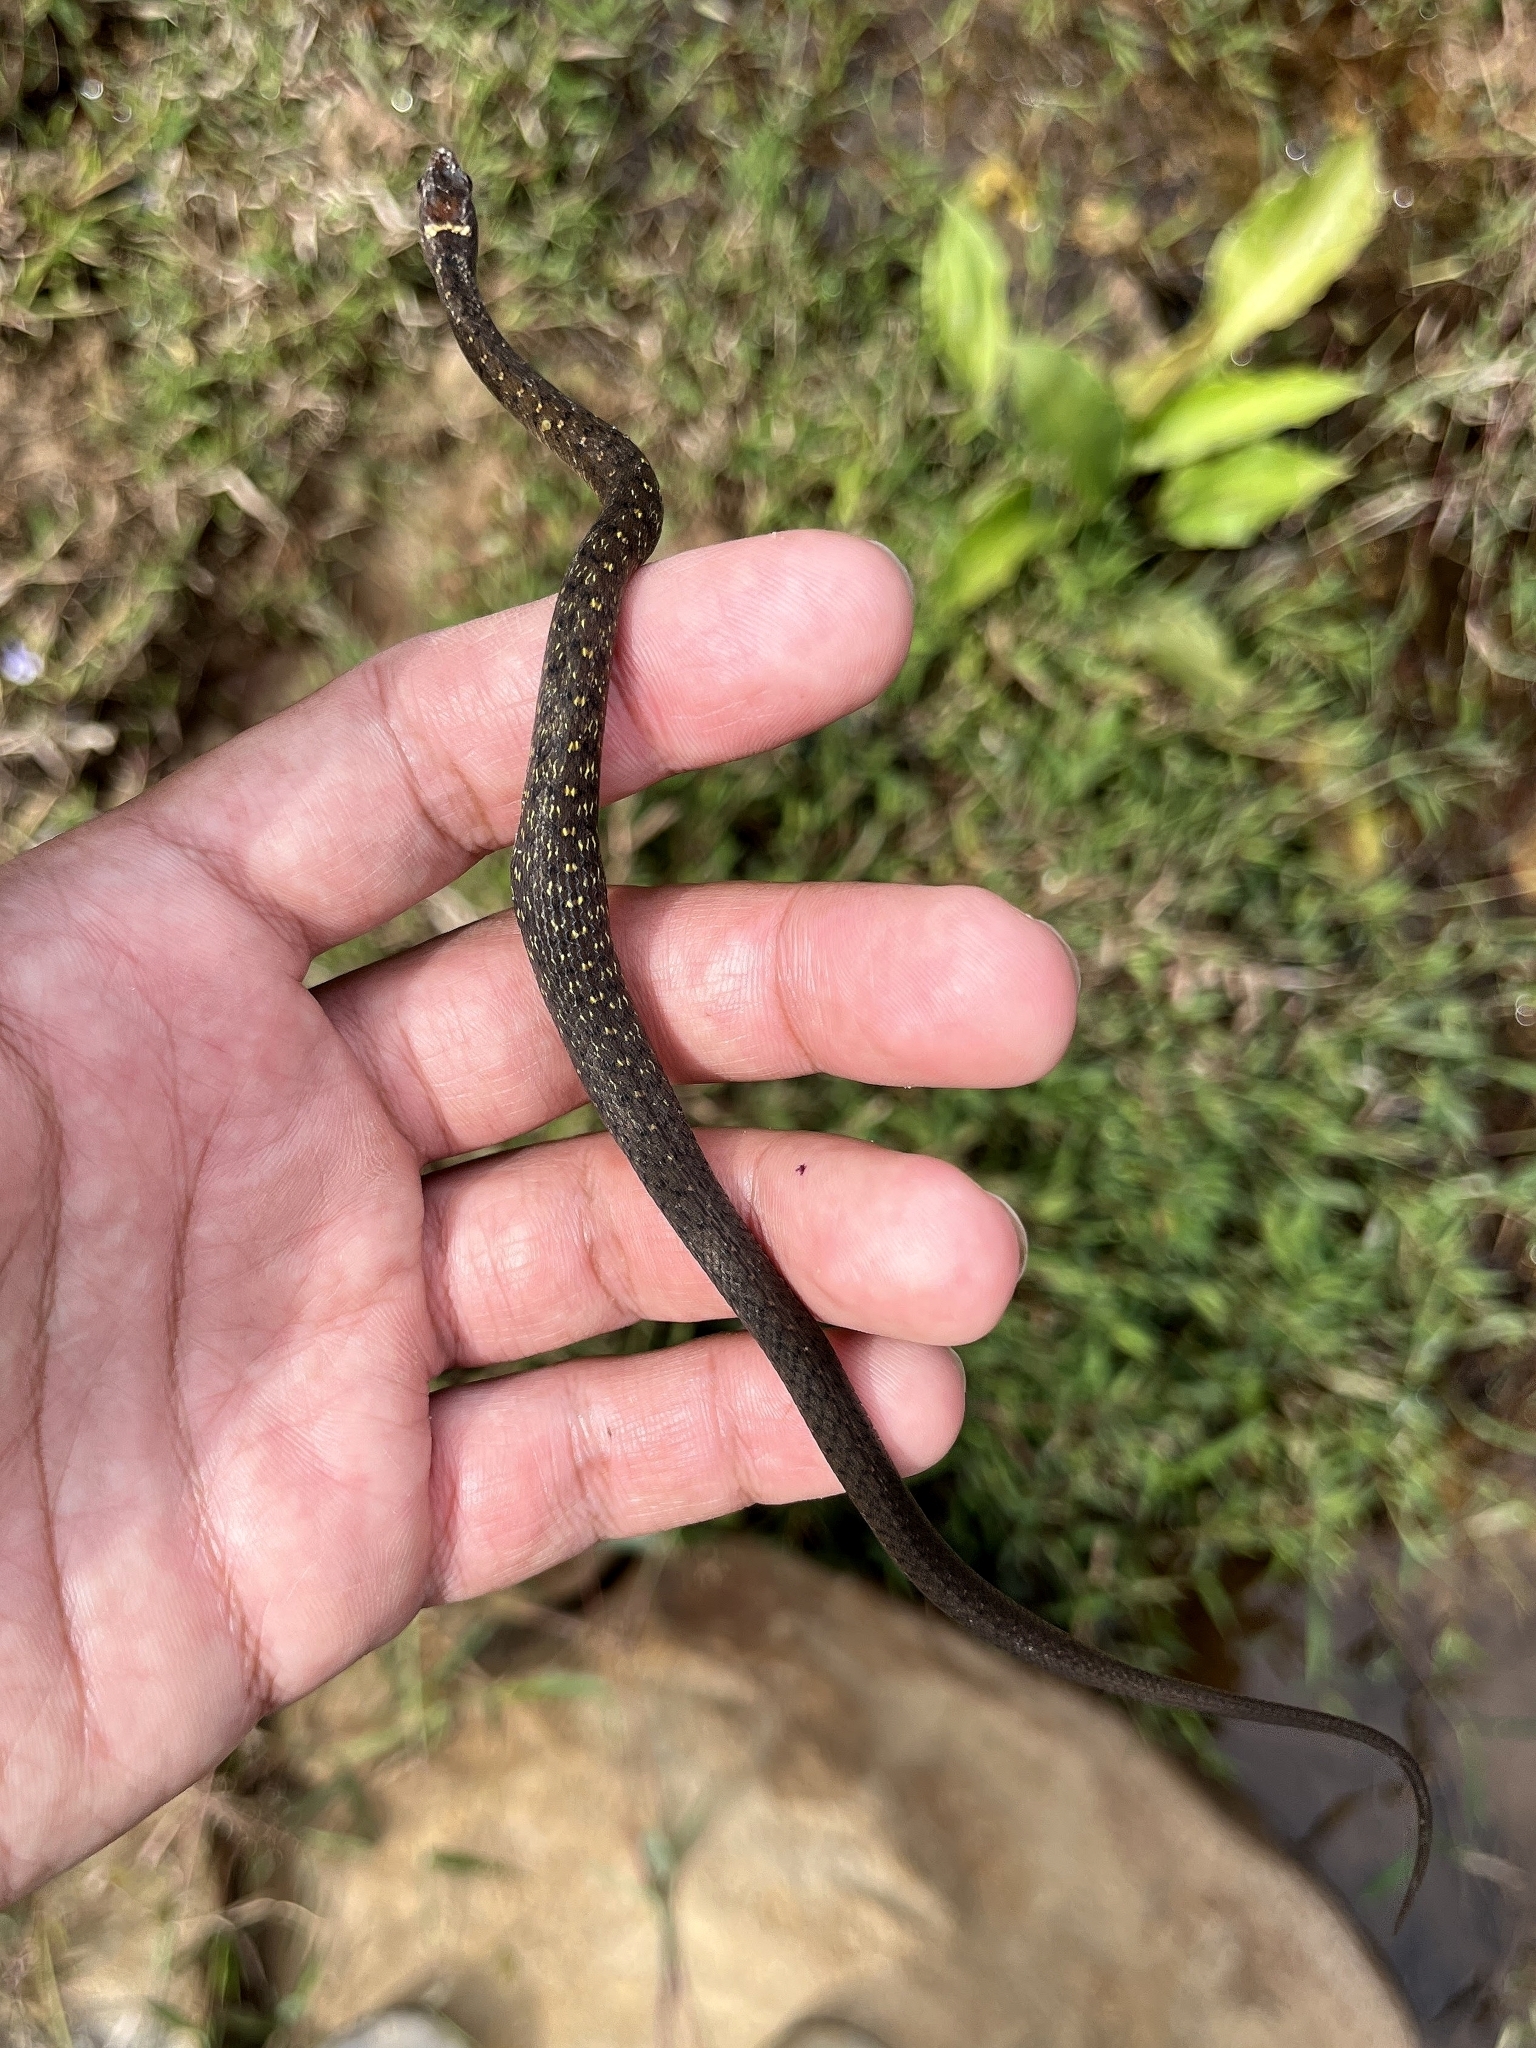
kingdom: Animalia
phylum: Chordata
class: Squamata
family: Colubridae
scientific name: Colubridae
